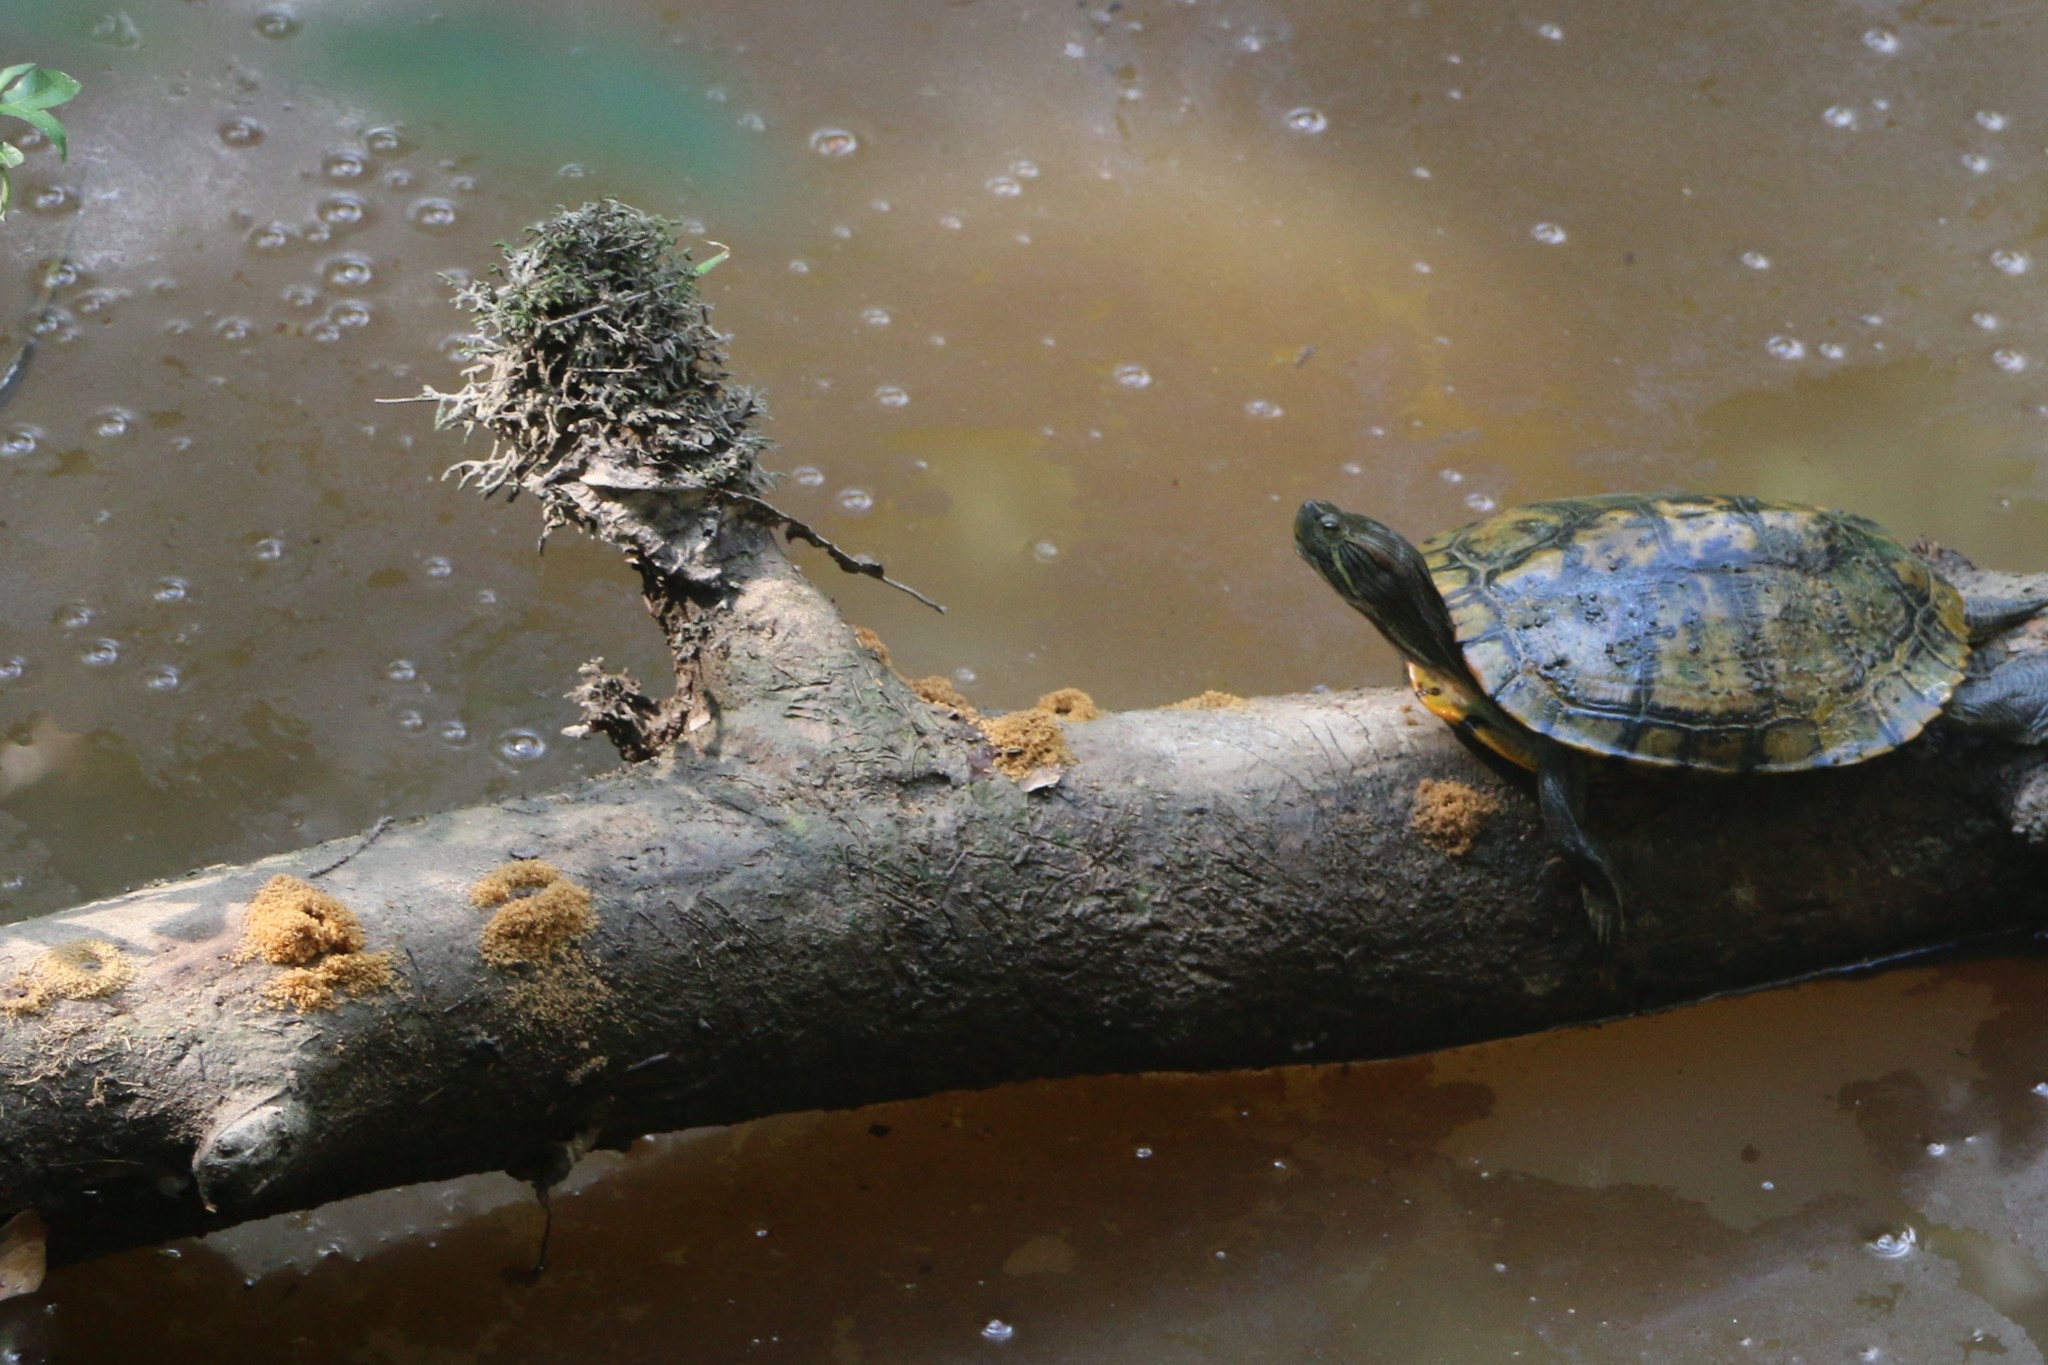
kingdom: Animalia
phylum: Chordata
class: Testudines
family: Emydidae
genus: Trachemys
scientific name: Trachemys scripta
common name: Slider
